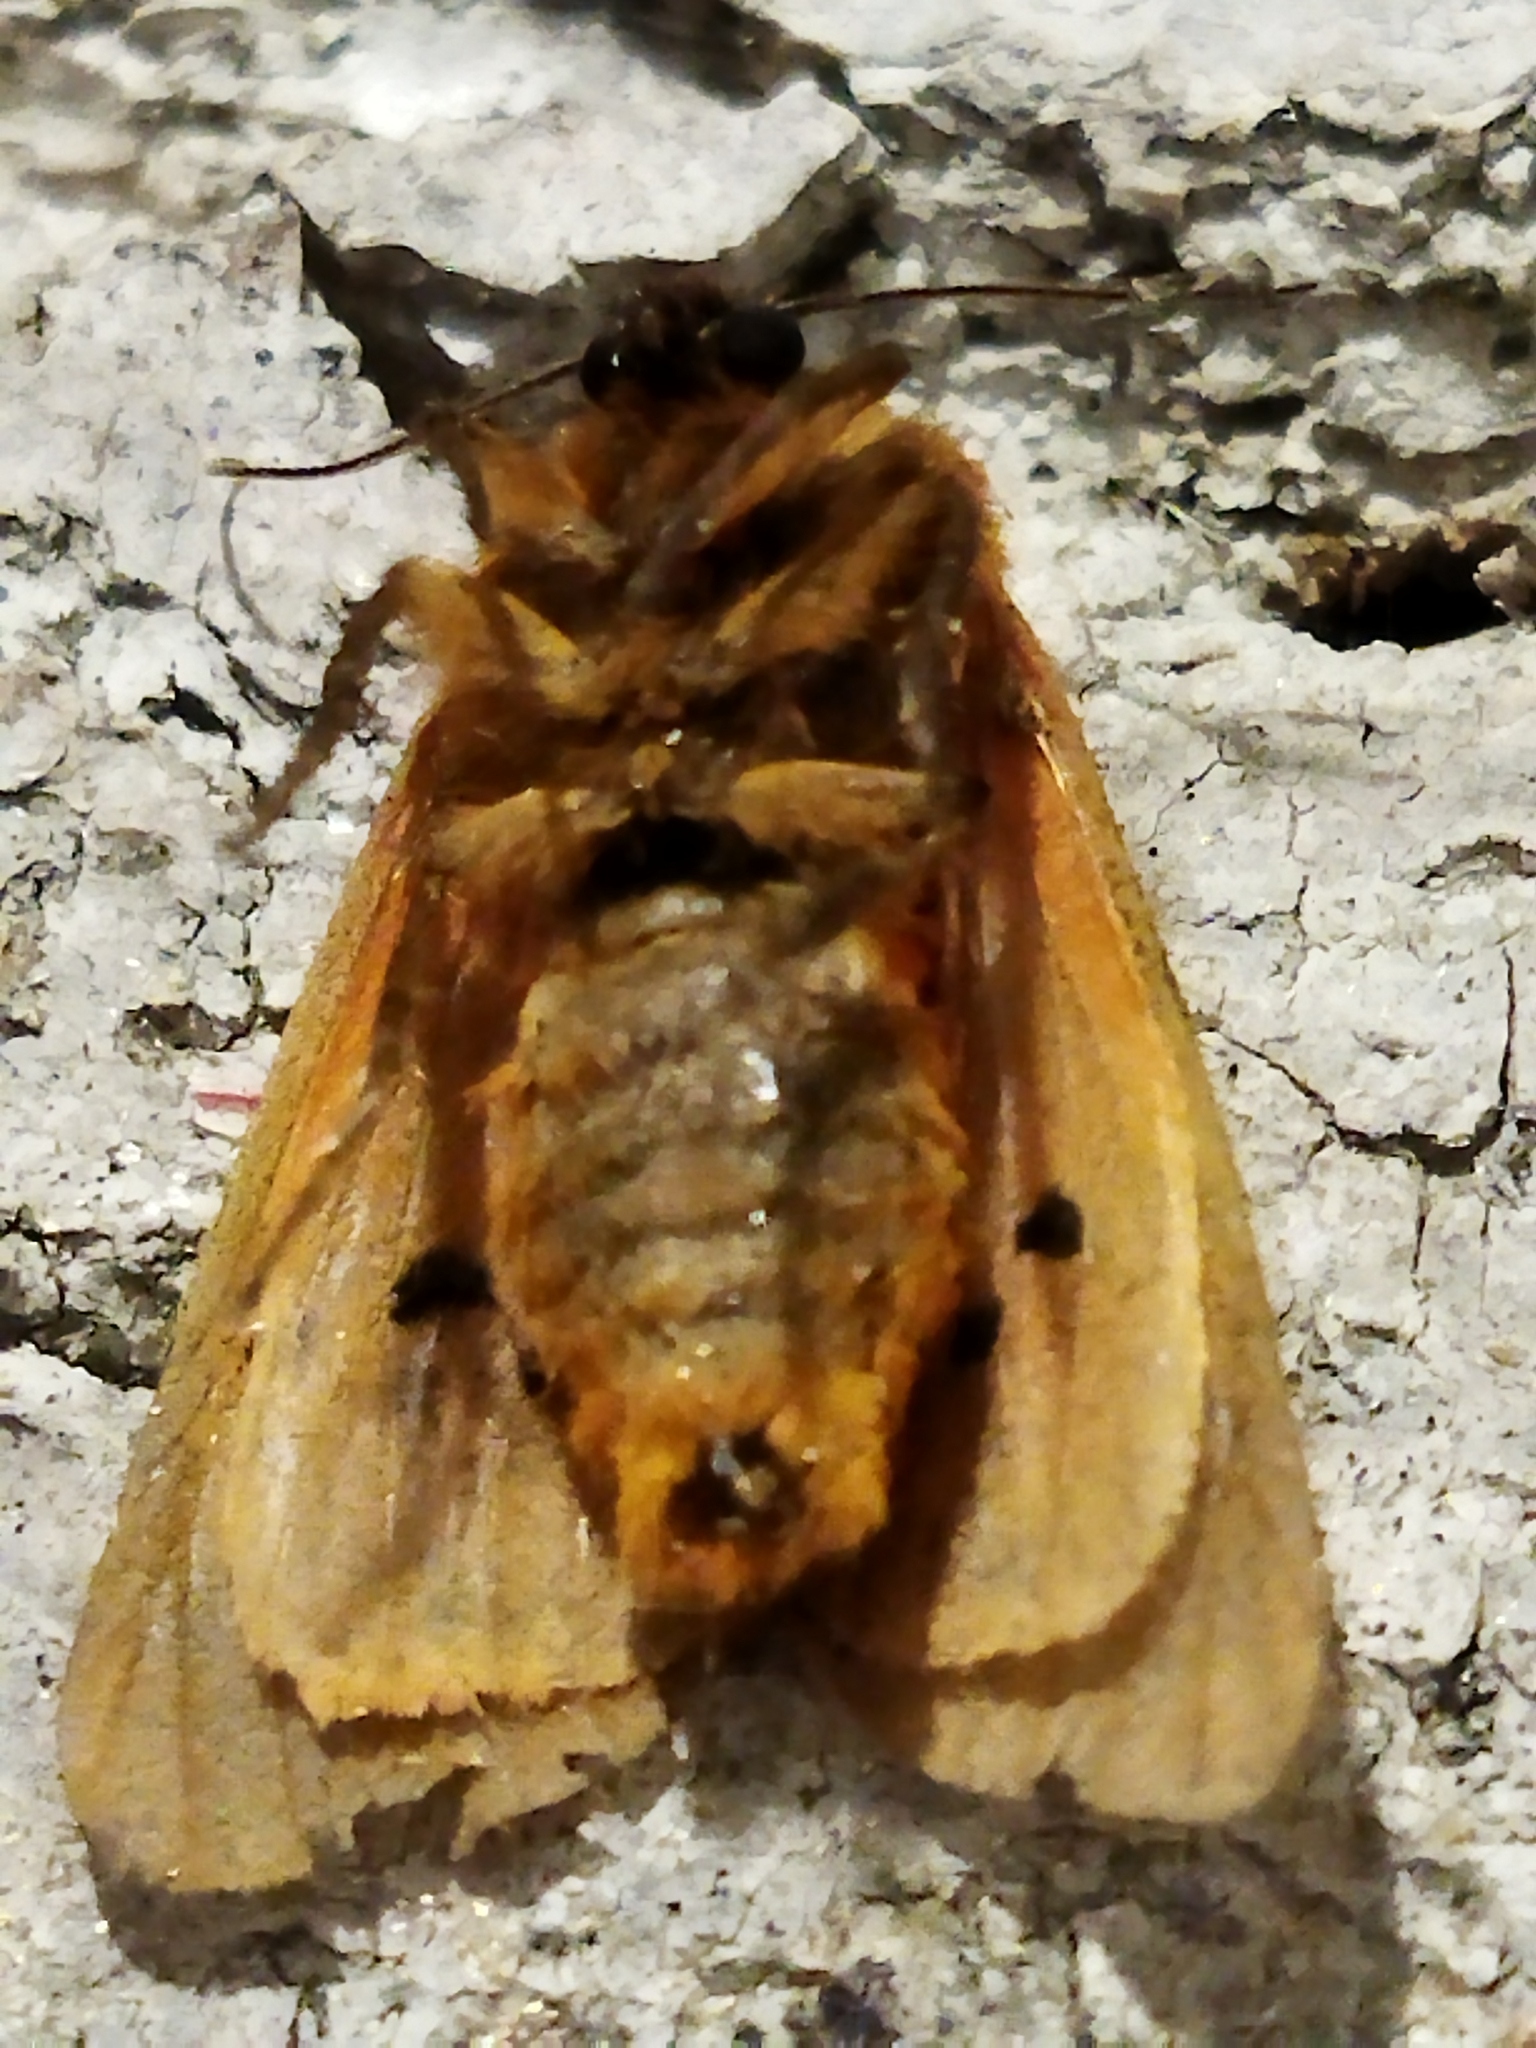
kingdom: Animalia
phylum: Arthropoda
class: Insecta
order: Lepidoptera
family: Erebidae
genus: Phragmatobia
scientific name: Phragmatobia fuliginosa
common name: Ruby tiger
